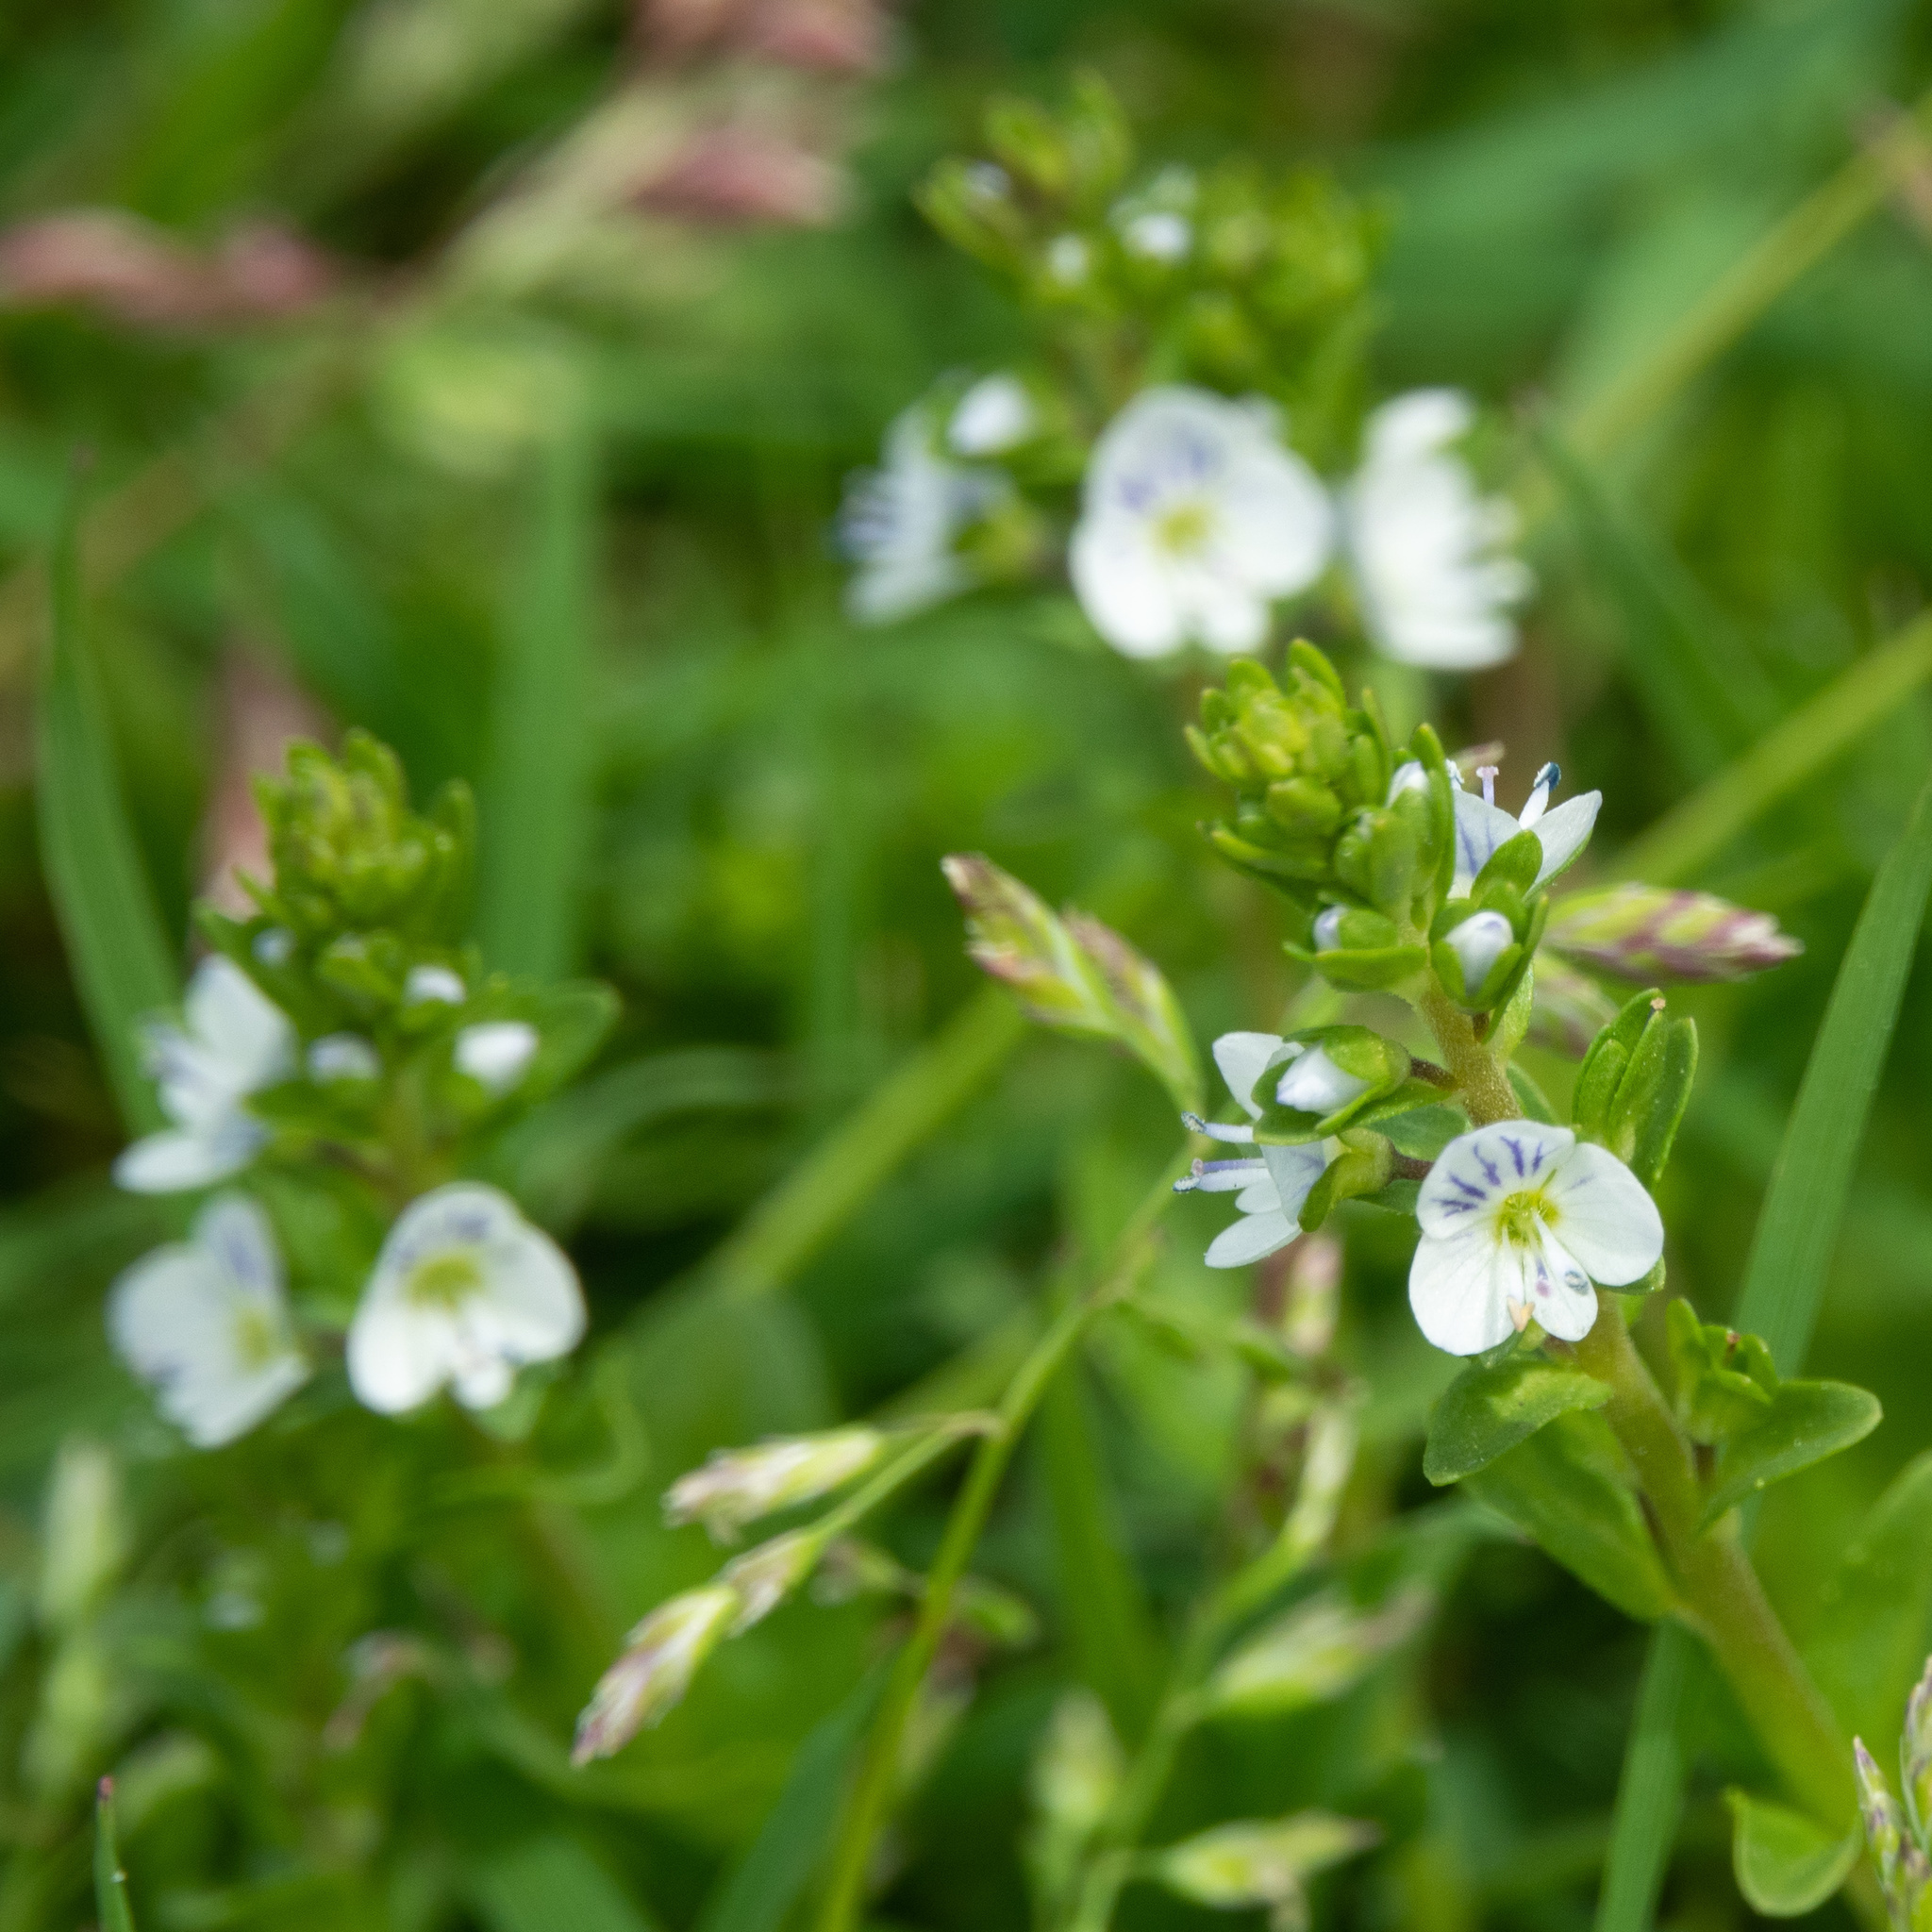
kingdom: Plantae
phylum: Tracheophyta
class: Magnoliopsida
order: Lamiales
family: Plantaginaceae
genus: Veronica
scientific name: Veronica serpyllifolia
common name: Thyme-leaved speedwell
